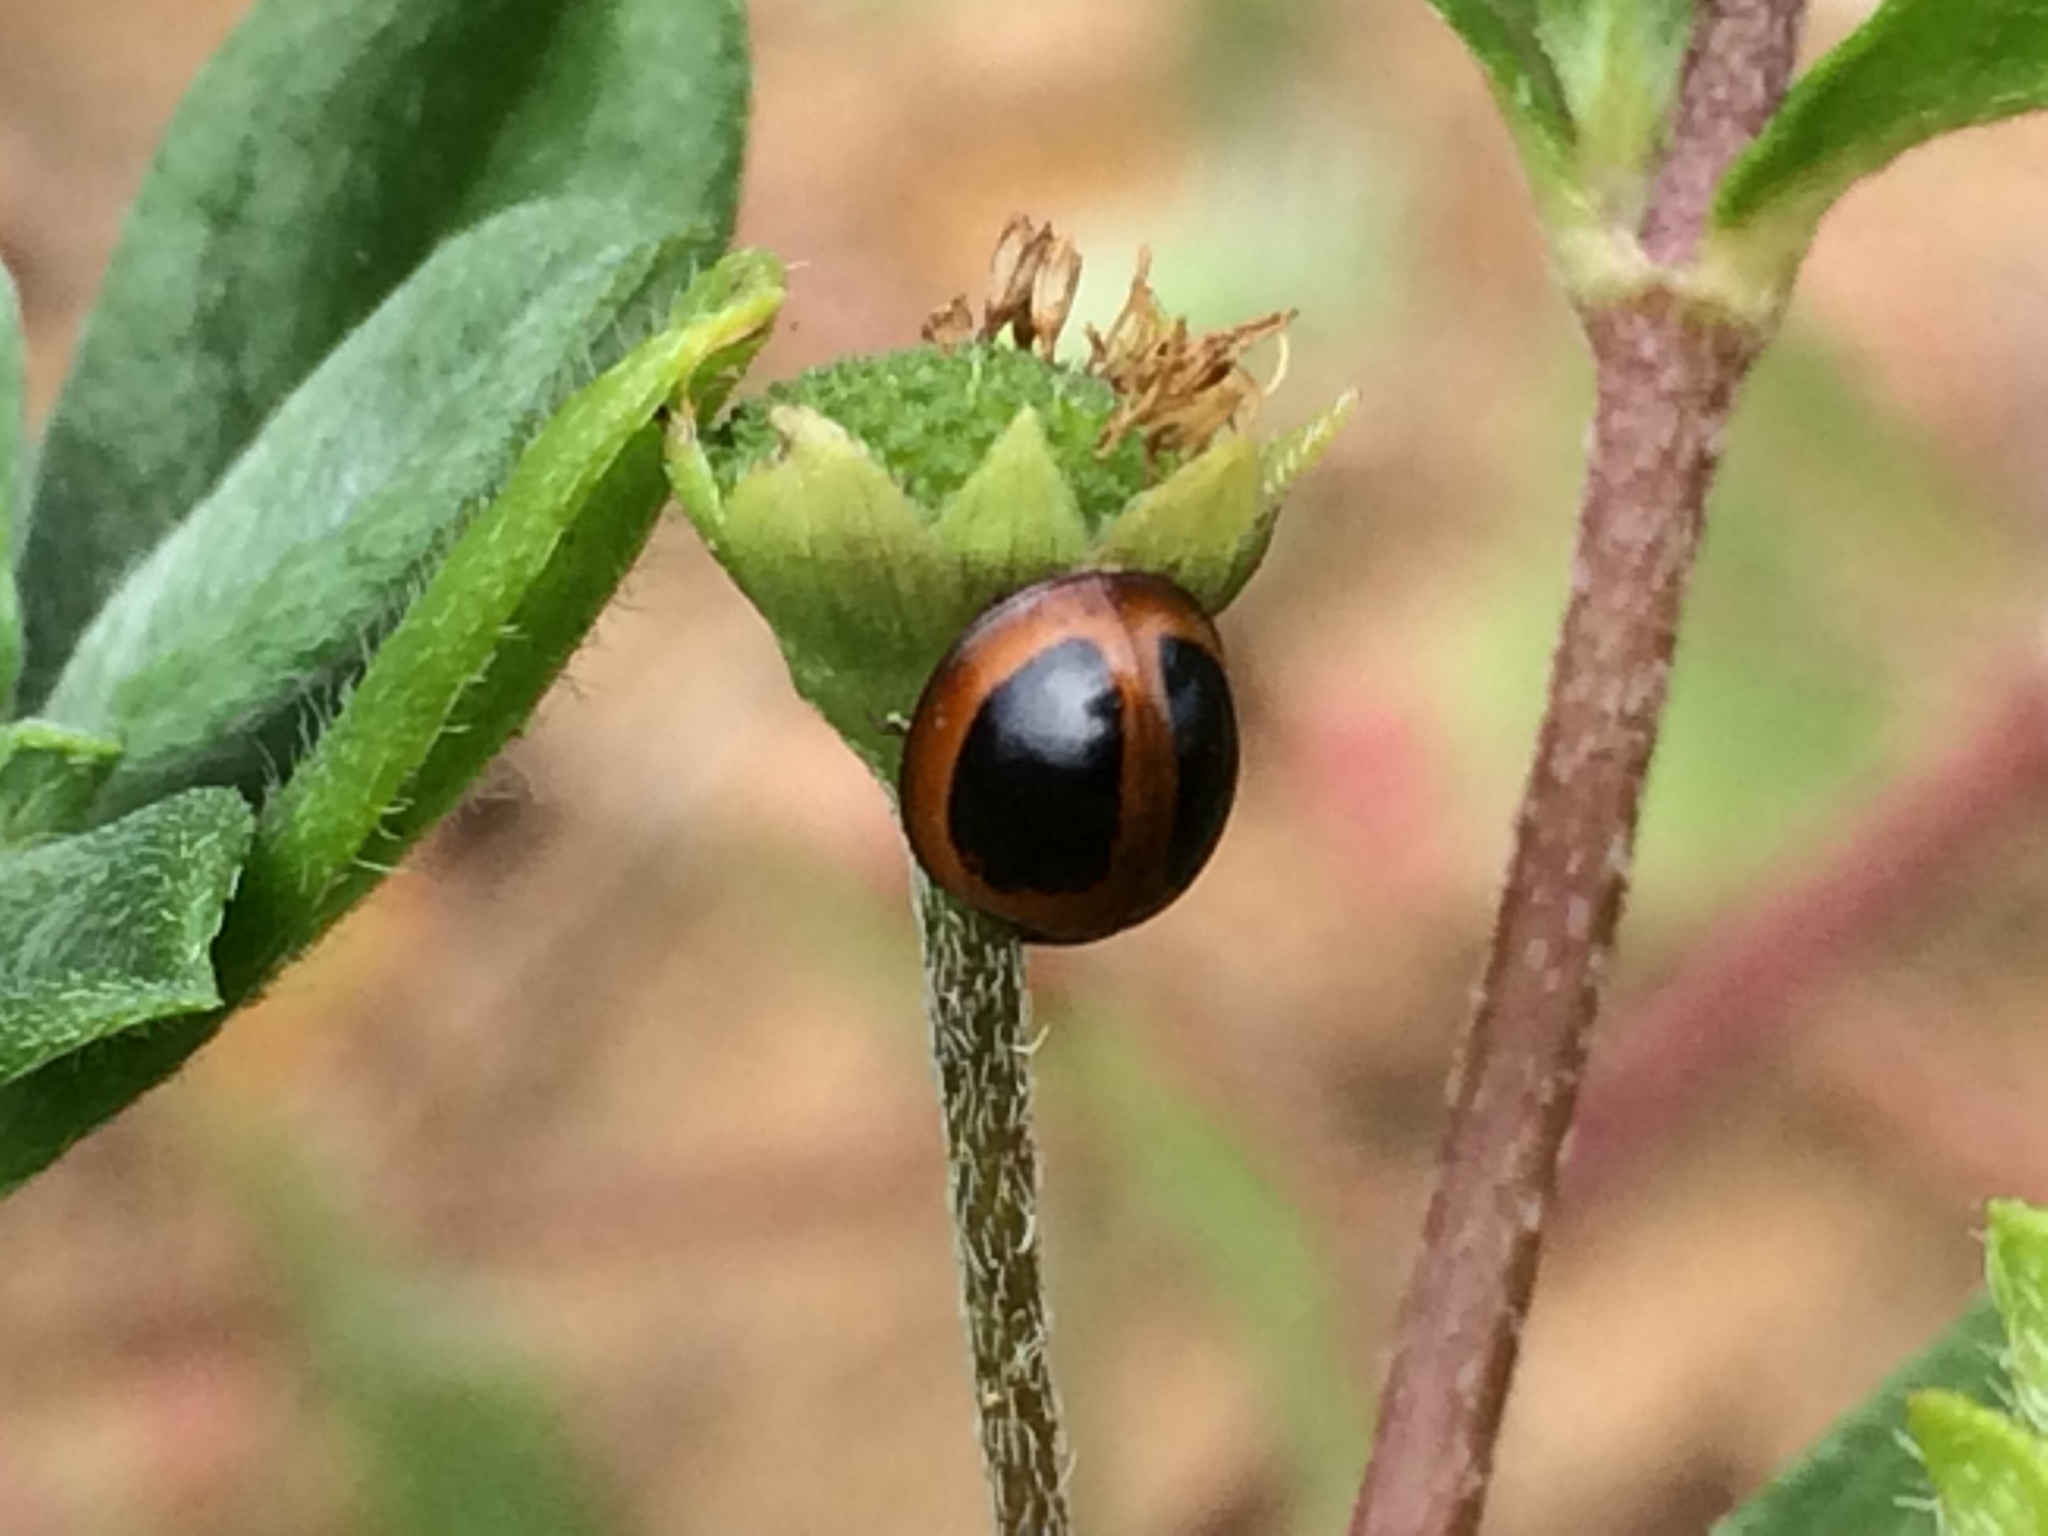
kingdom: Animalia
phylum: Arthropoda
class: Insecta
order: Coleoptera
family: Coccinellidae
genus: Zagreus
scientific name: Zagreus bimaculosus
